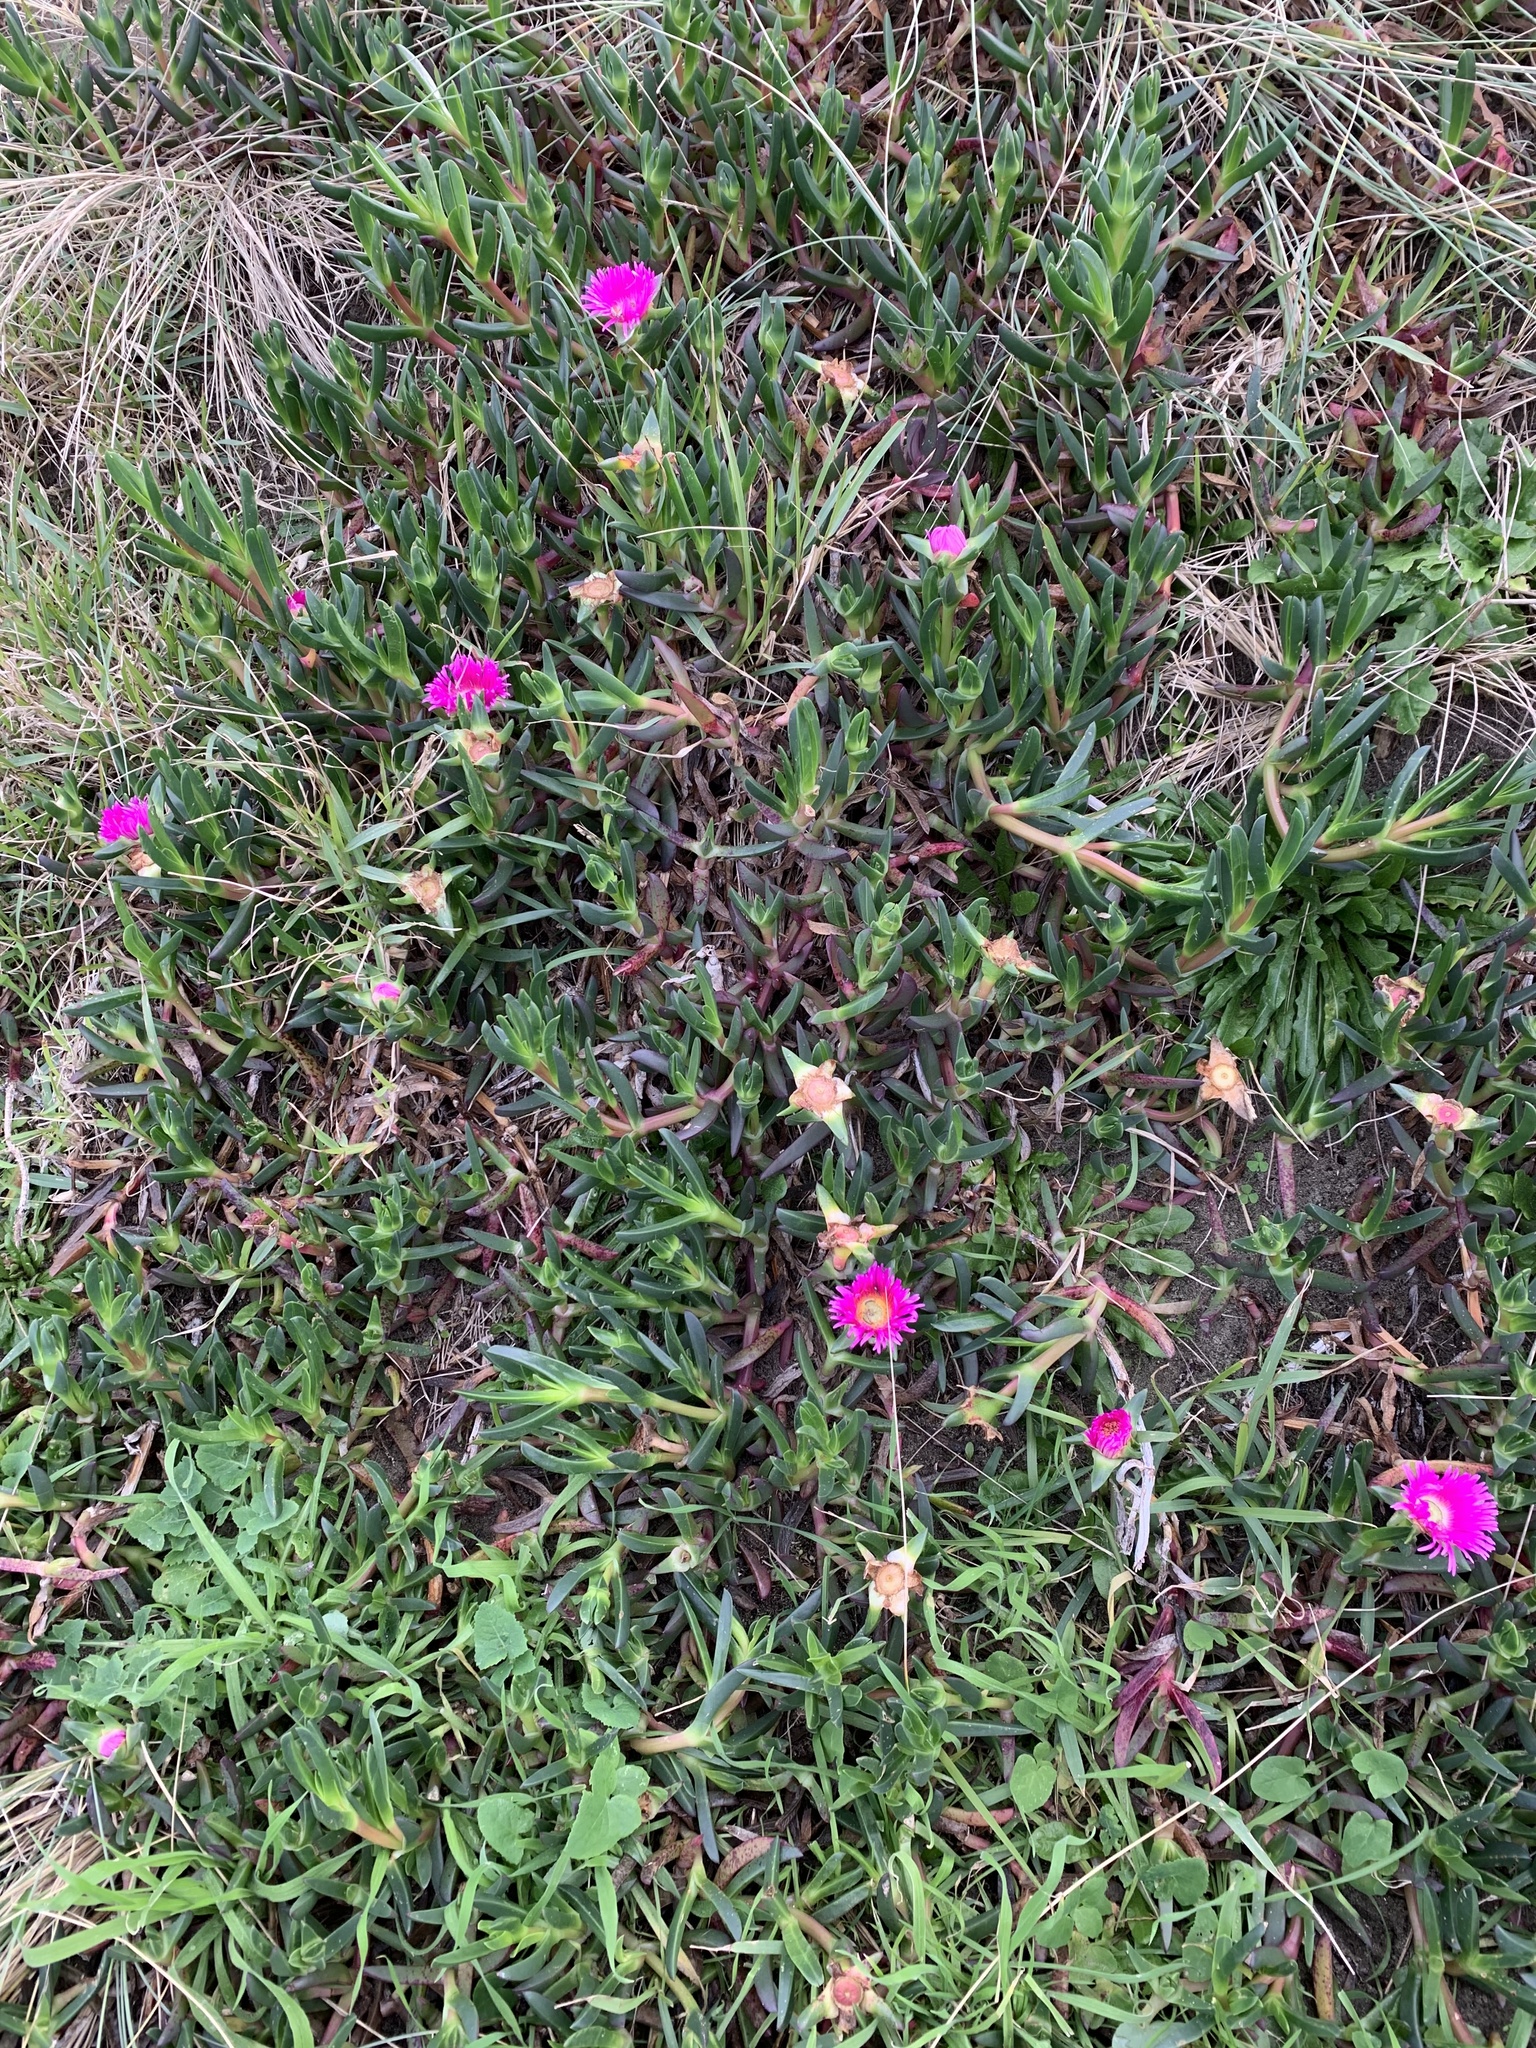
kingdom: Plantae
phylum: Tracheophyta
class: Magnoliopsida
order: Caryophyllales
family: Aizoaceae
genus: Carpobrotus
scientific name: Carpobrotus chilensis
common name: Sea fig
